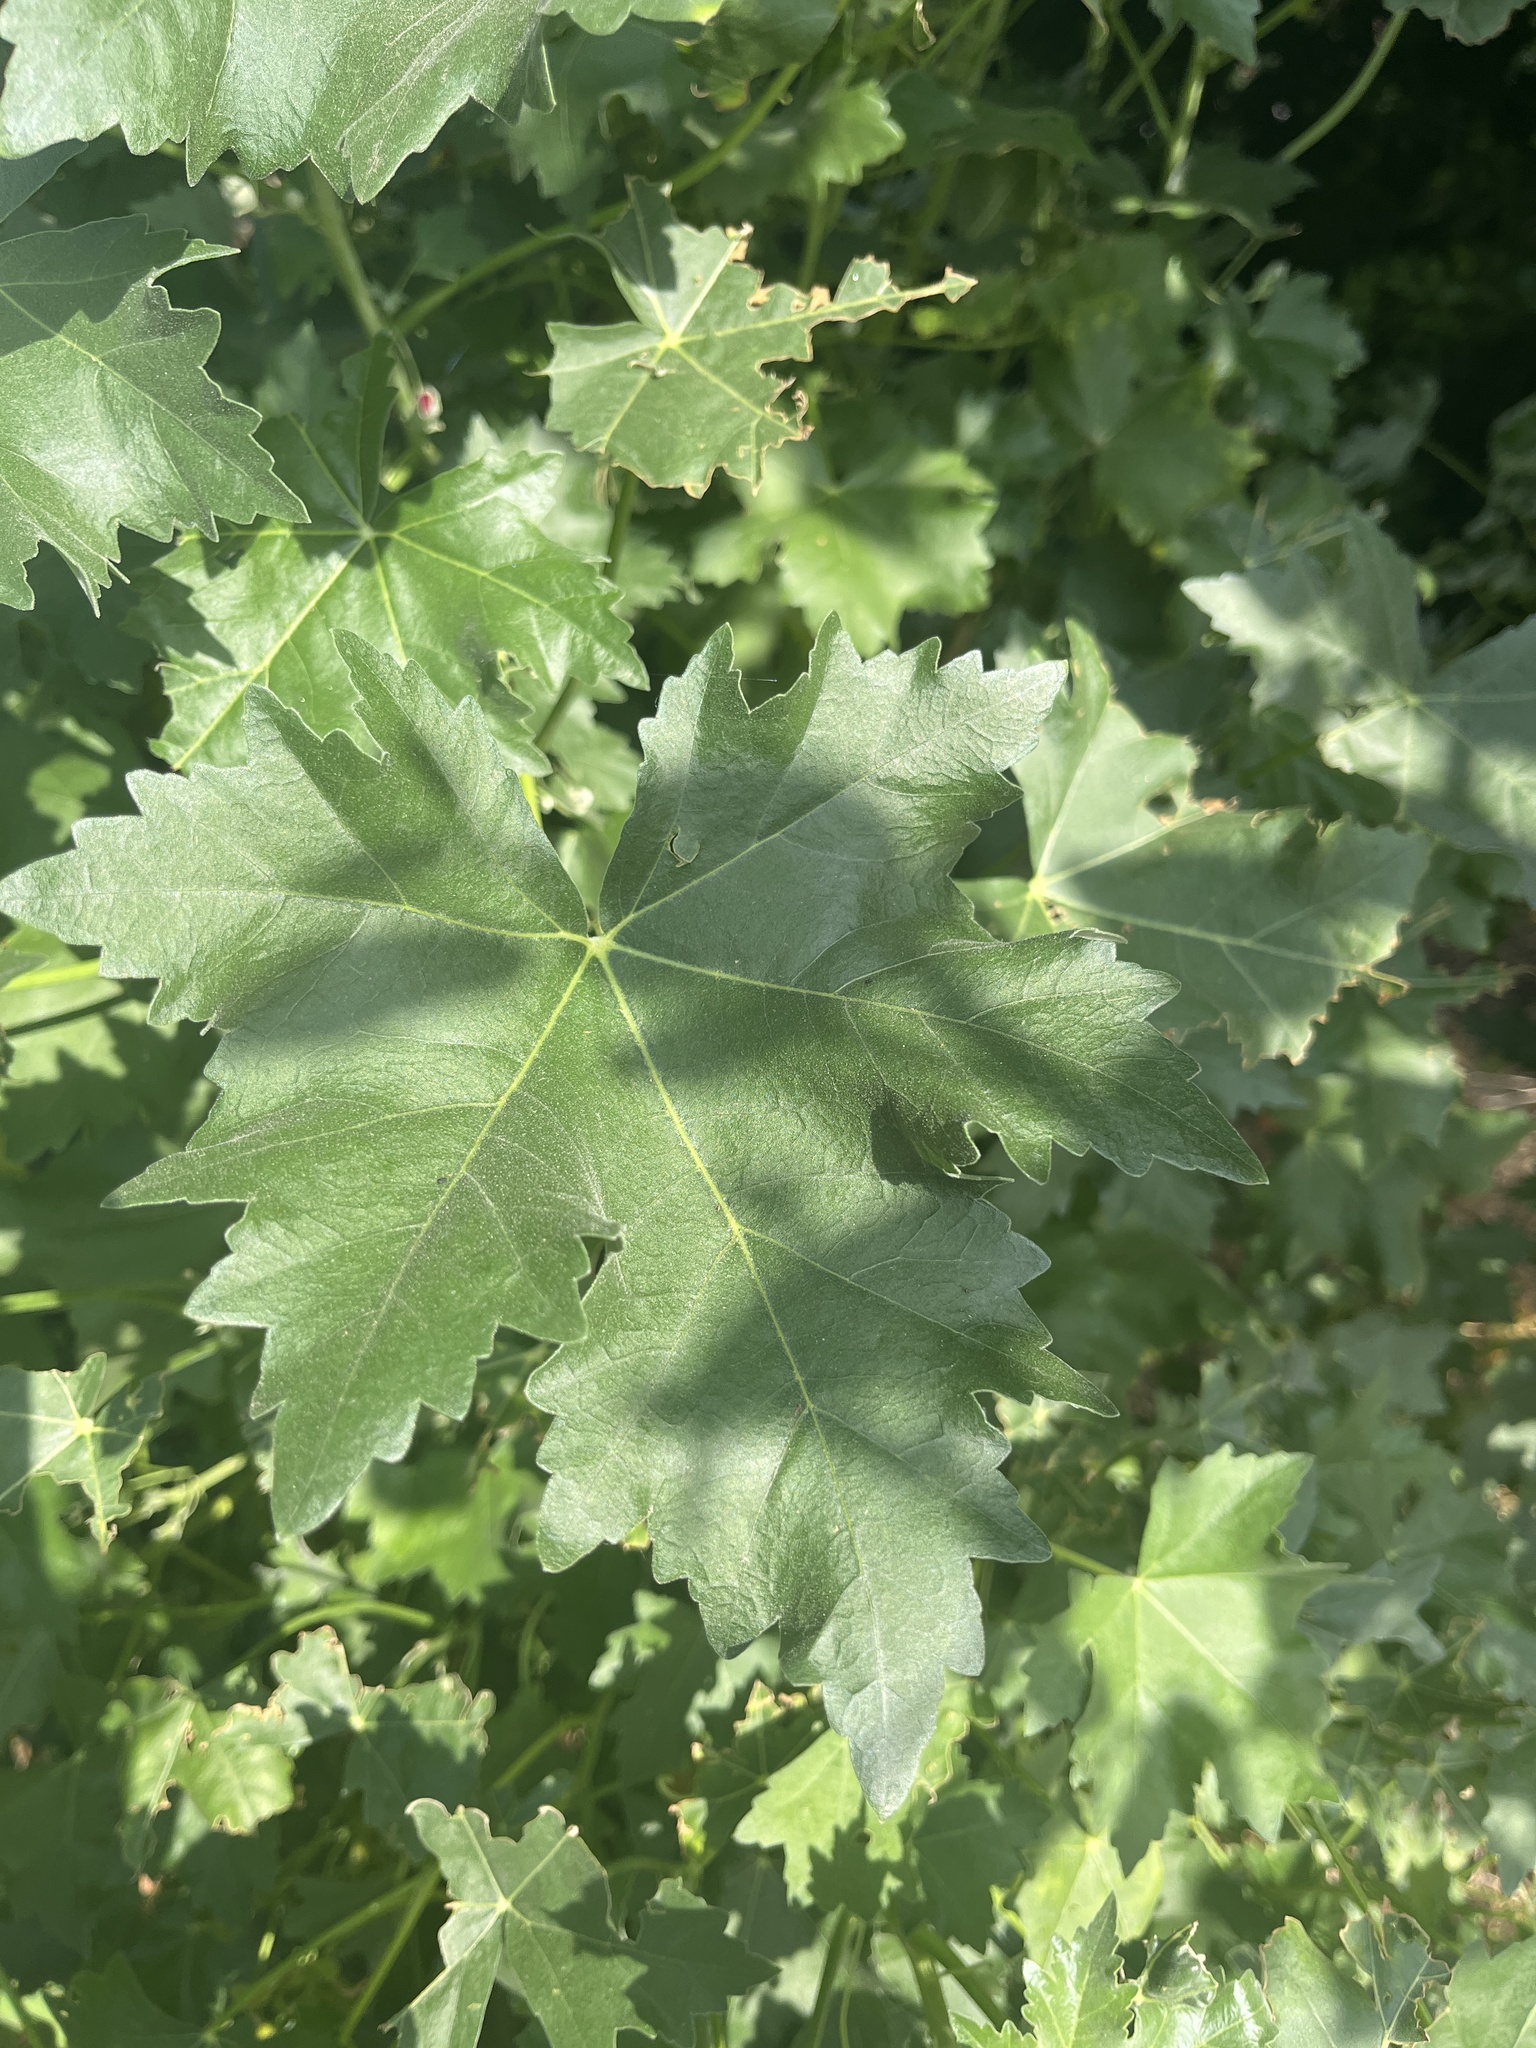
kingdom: Plantae
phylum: Tracheophyta
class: Magnoliopsida
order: Malvales
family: Malvaceae
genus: Malva
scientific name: Malva assurgentiflora
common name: Island mallow
